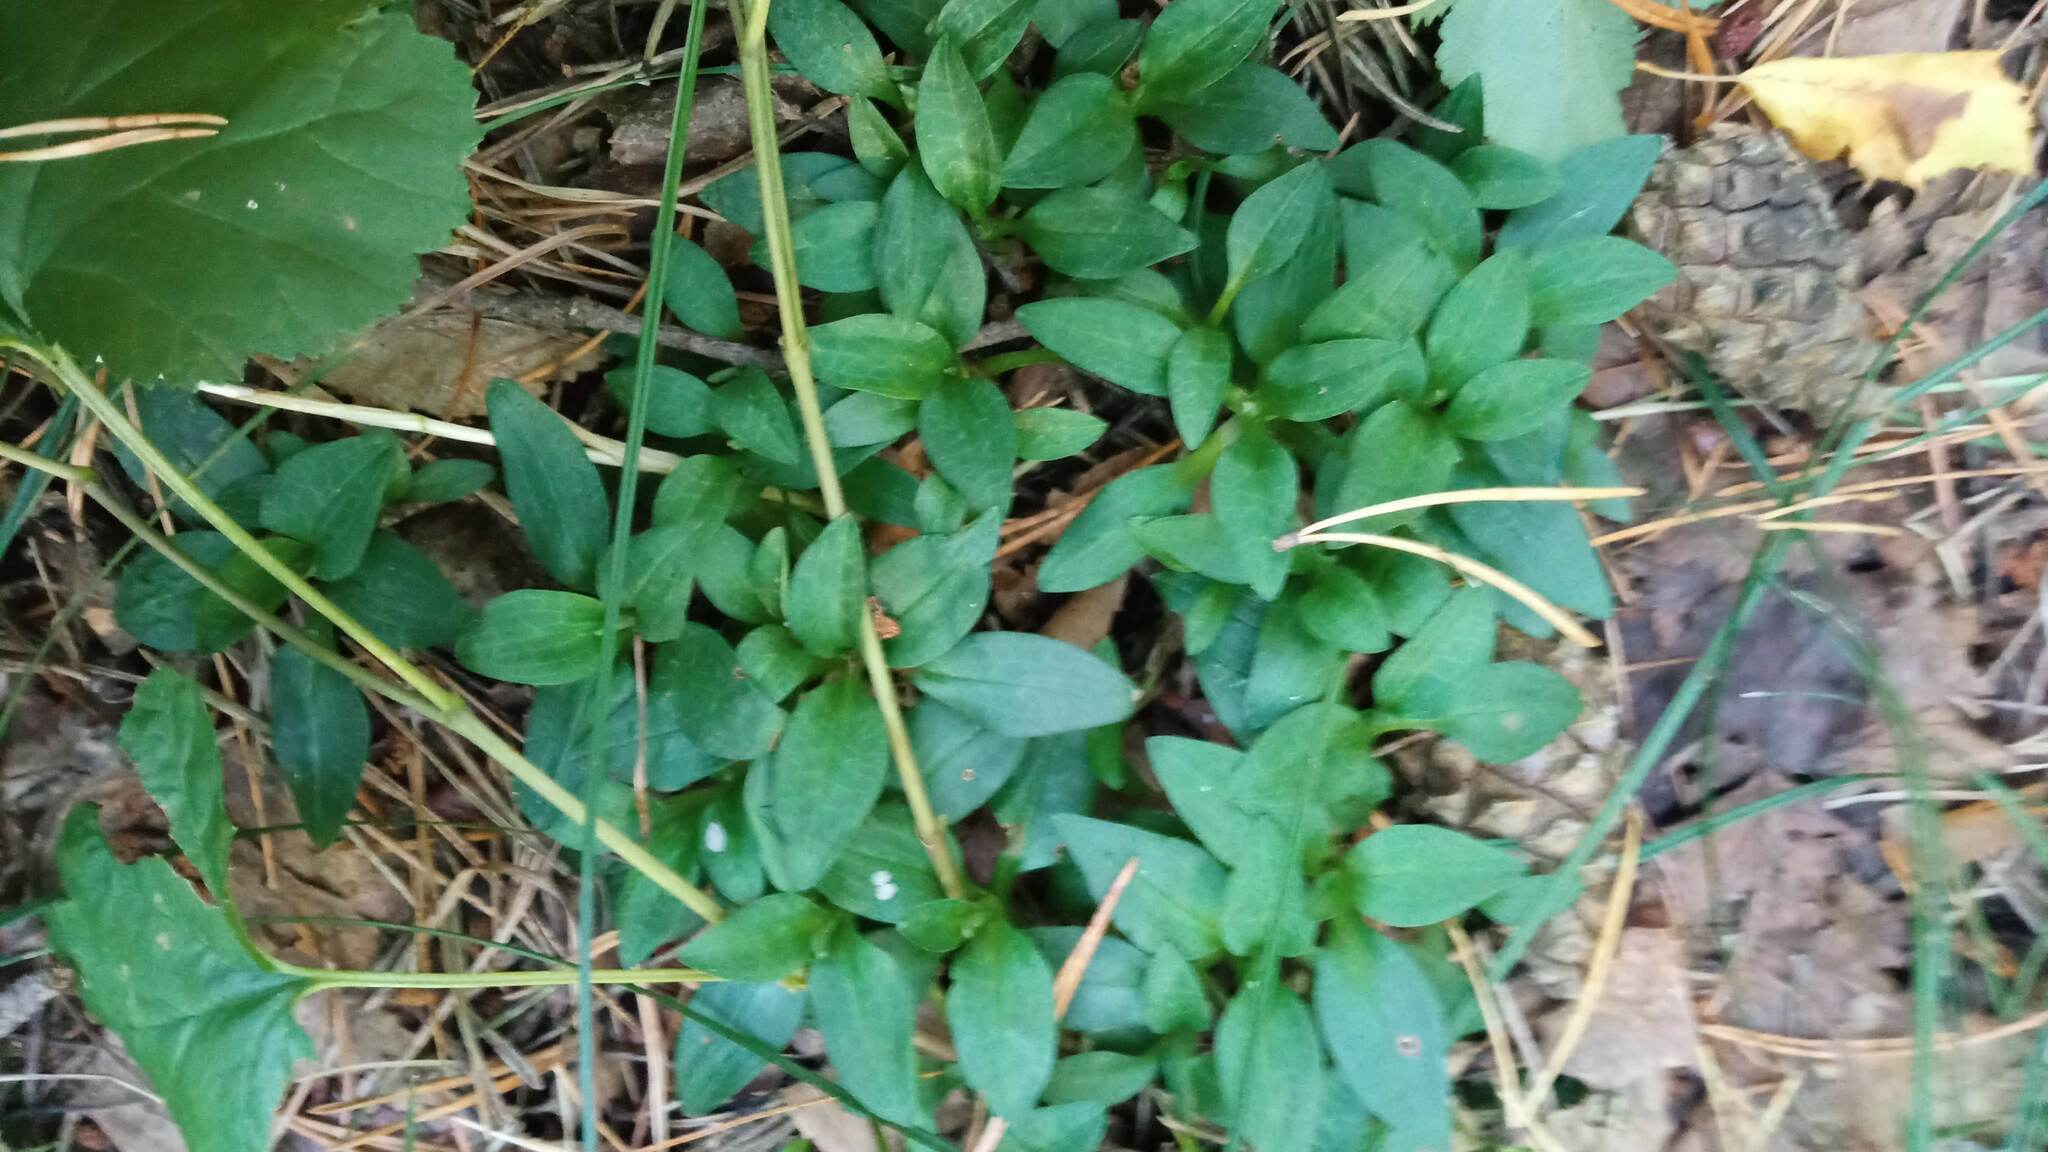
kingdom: Plantae
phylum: Tracheophyta
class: Liliopsida
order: Asparagales
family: Orchidaceae
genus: Goodyera
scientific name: Goodyera repens
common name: Creeping lady's-tresses
